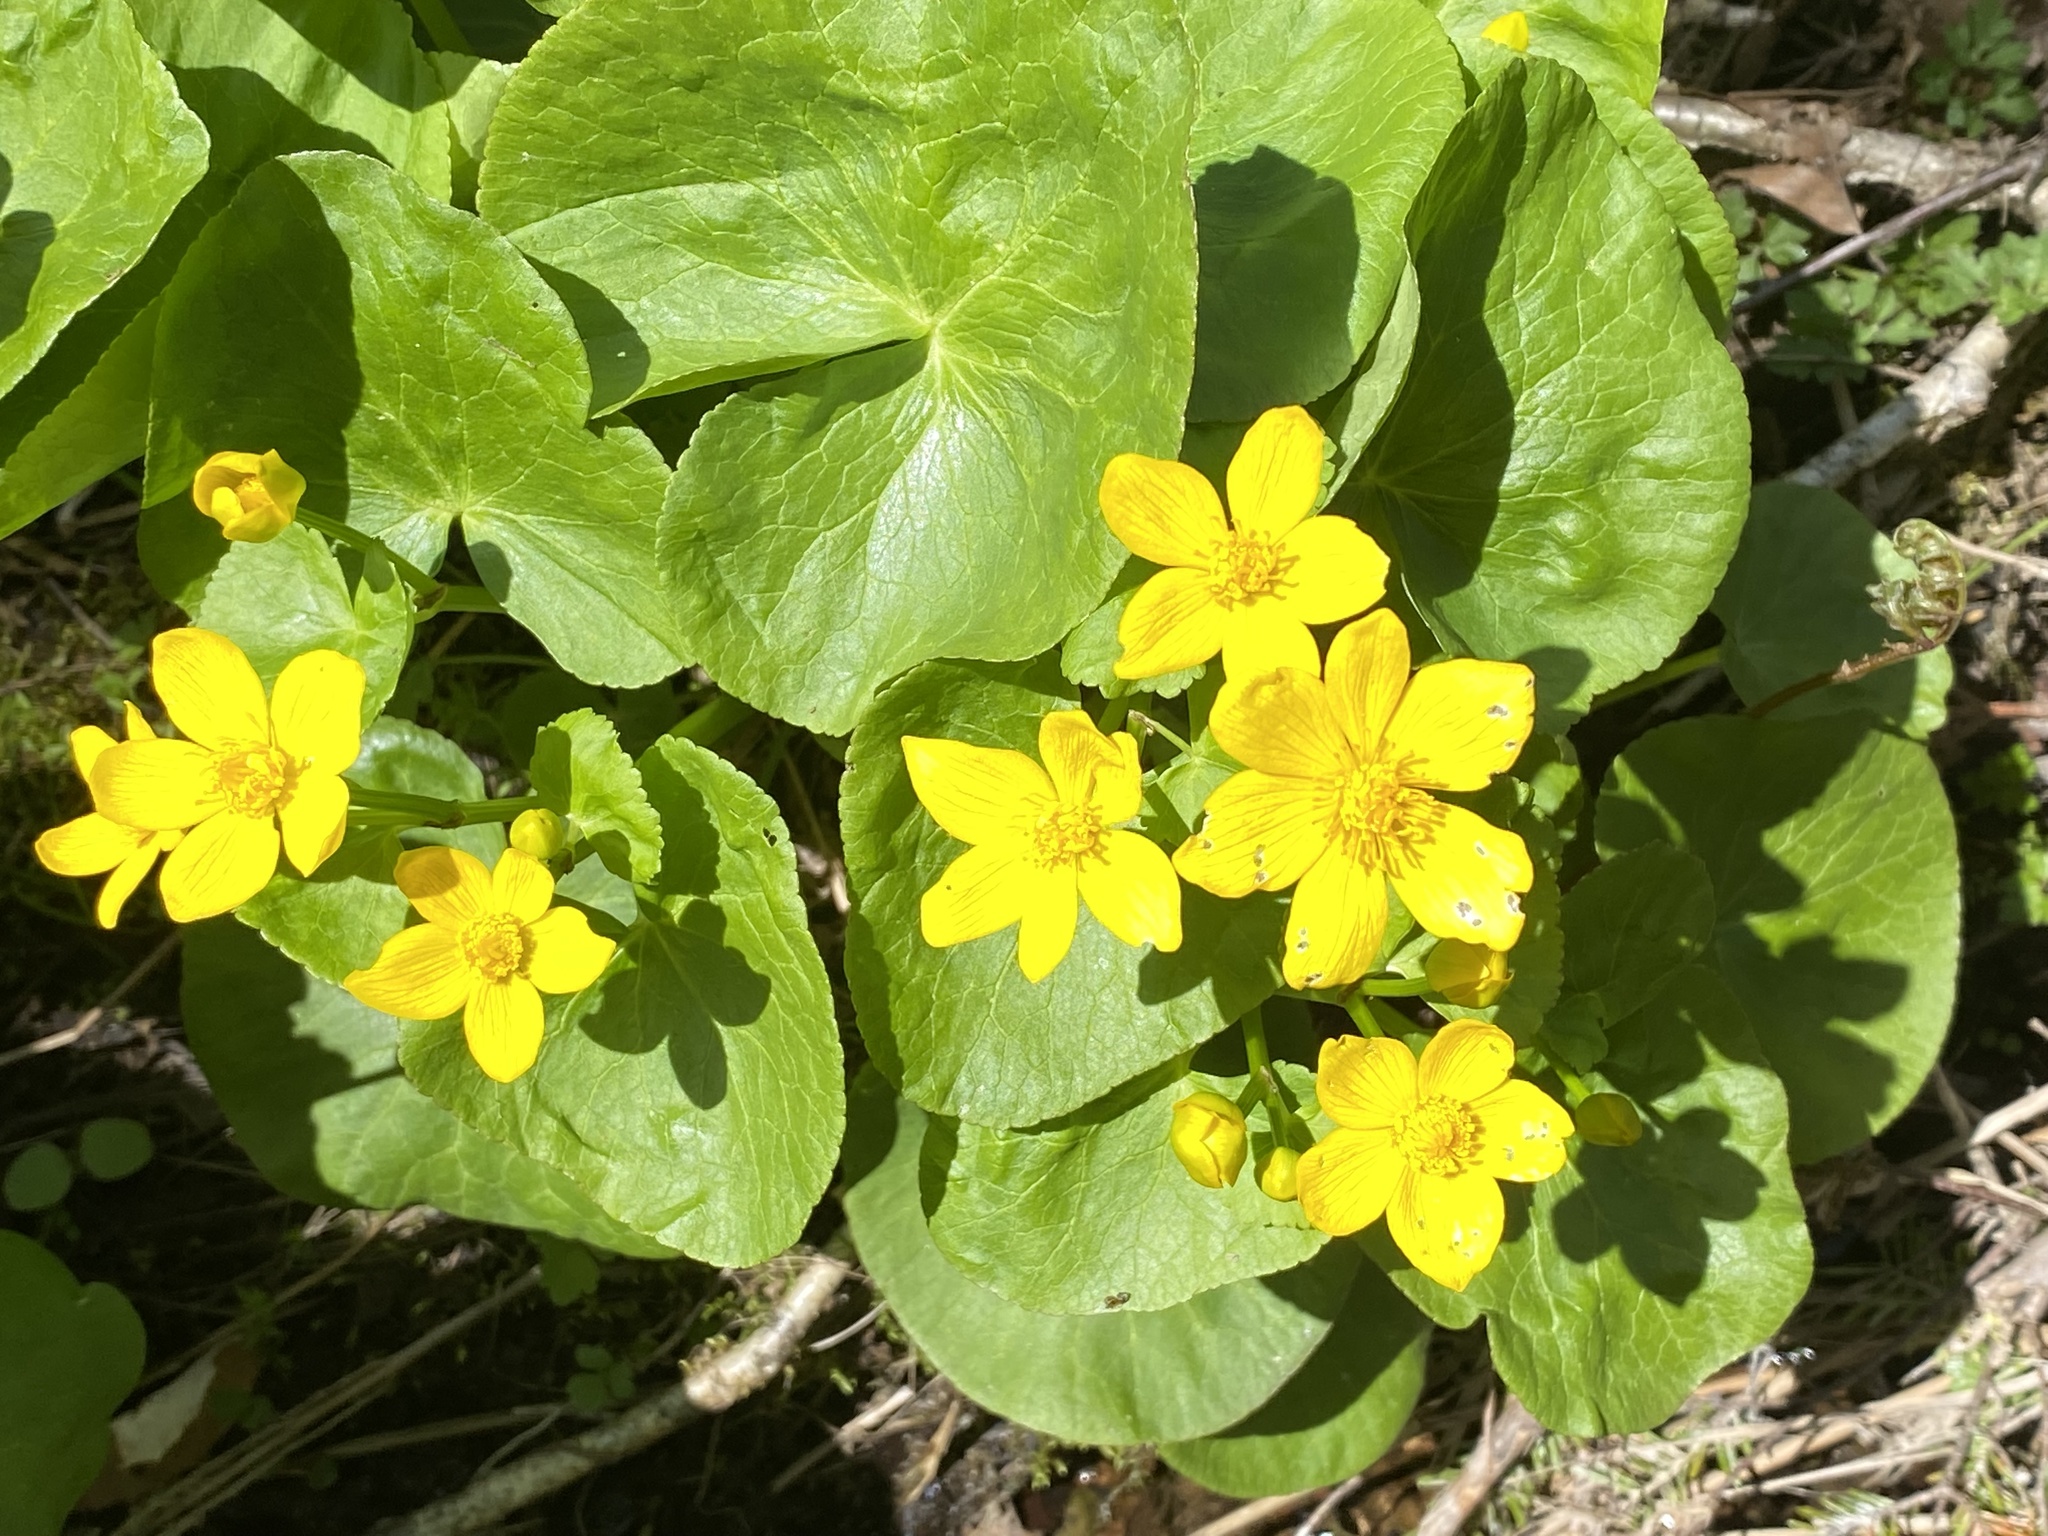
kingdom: Plantae
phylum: Tracheophyta
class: Magnoliopsida
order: Ranunculales
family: Ranunculaceae
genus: Caltha
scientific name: Caltha palustris
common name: Marsh marigold
